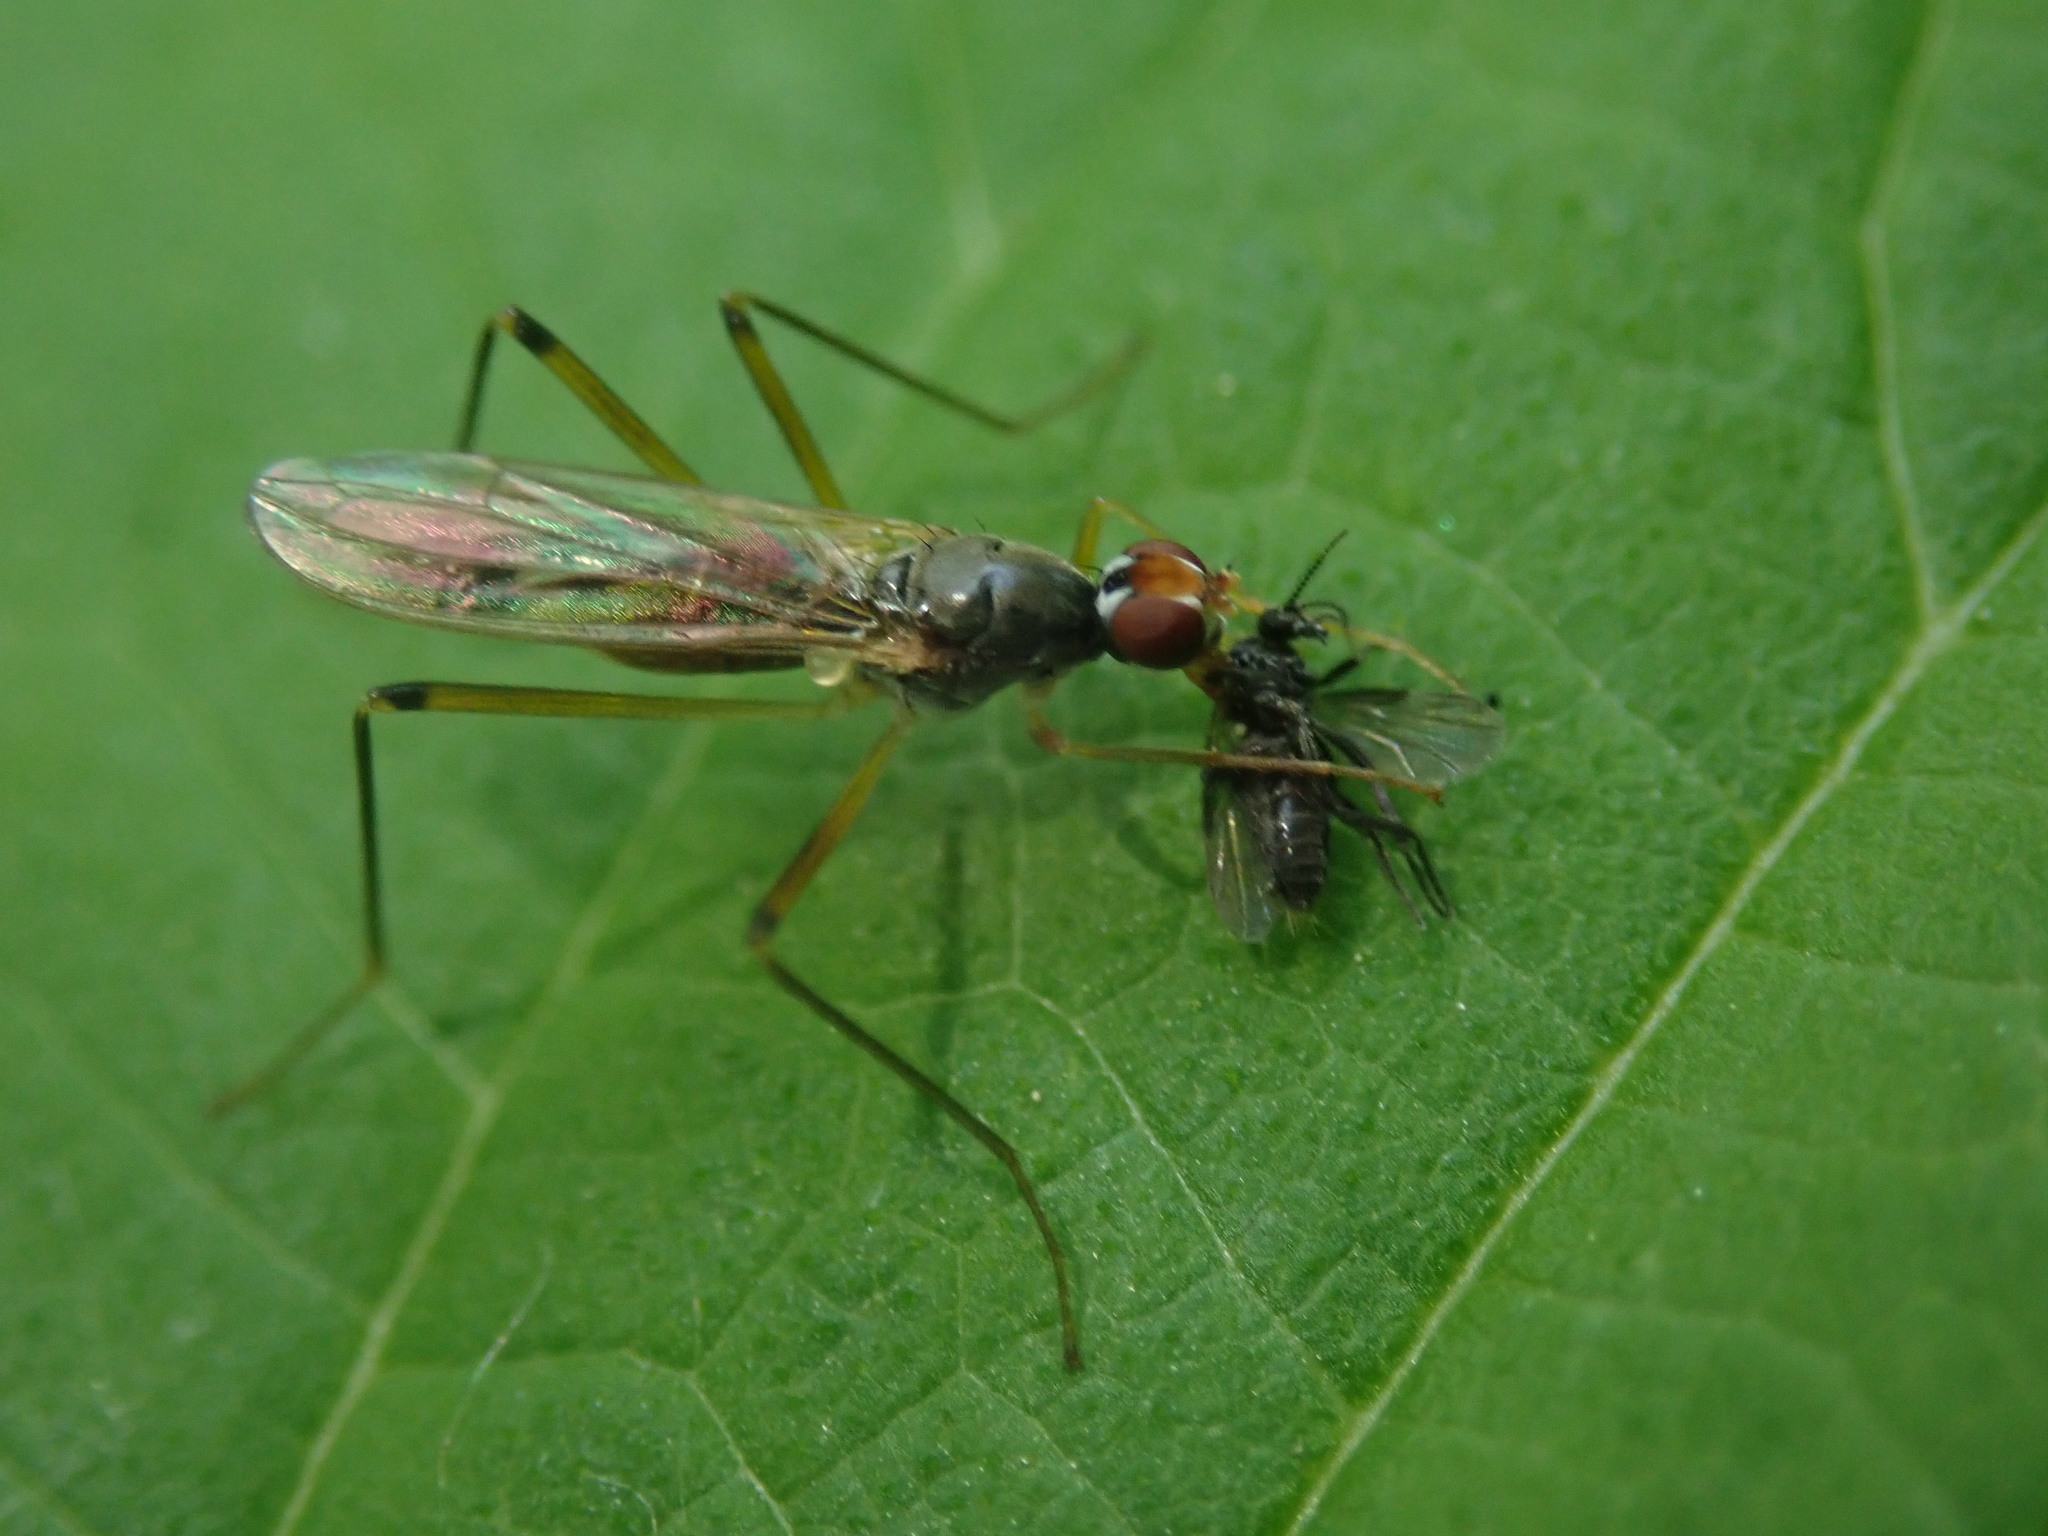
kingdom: Animalia
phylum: Arthropoda
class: Insecta
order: Diptera
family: Micropezidae
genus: Compsobata
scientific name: Compsobata cibaria
